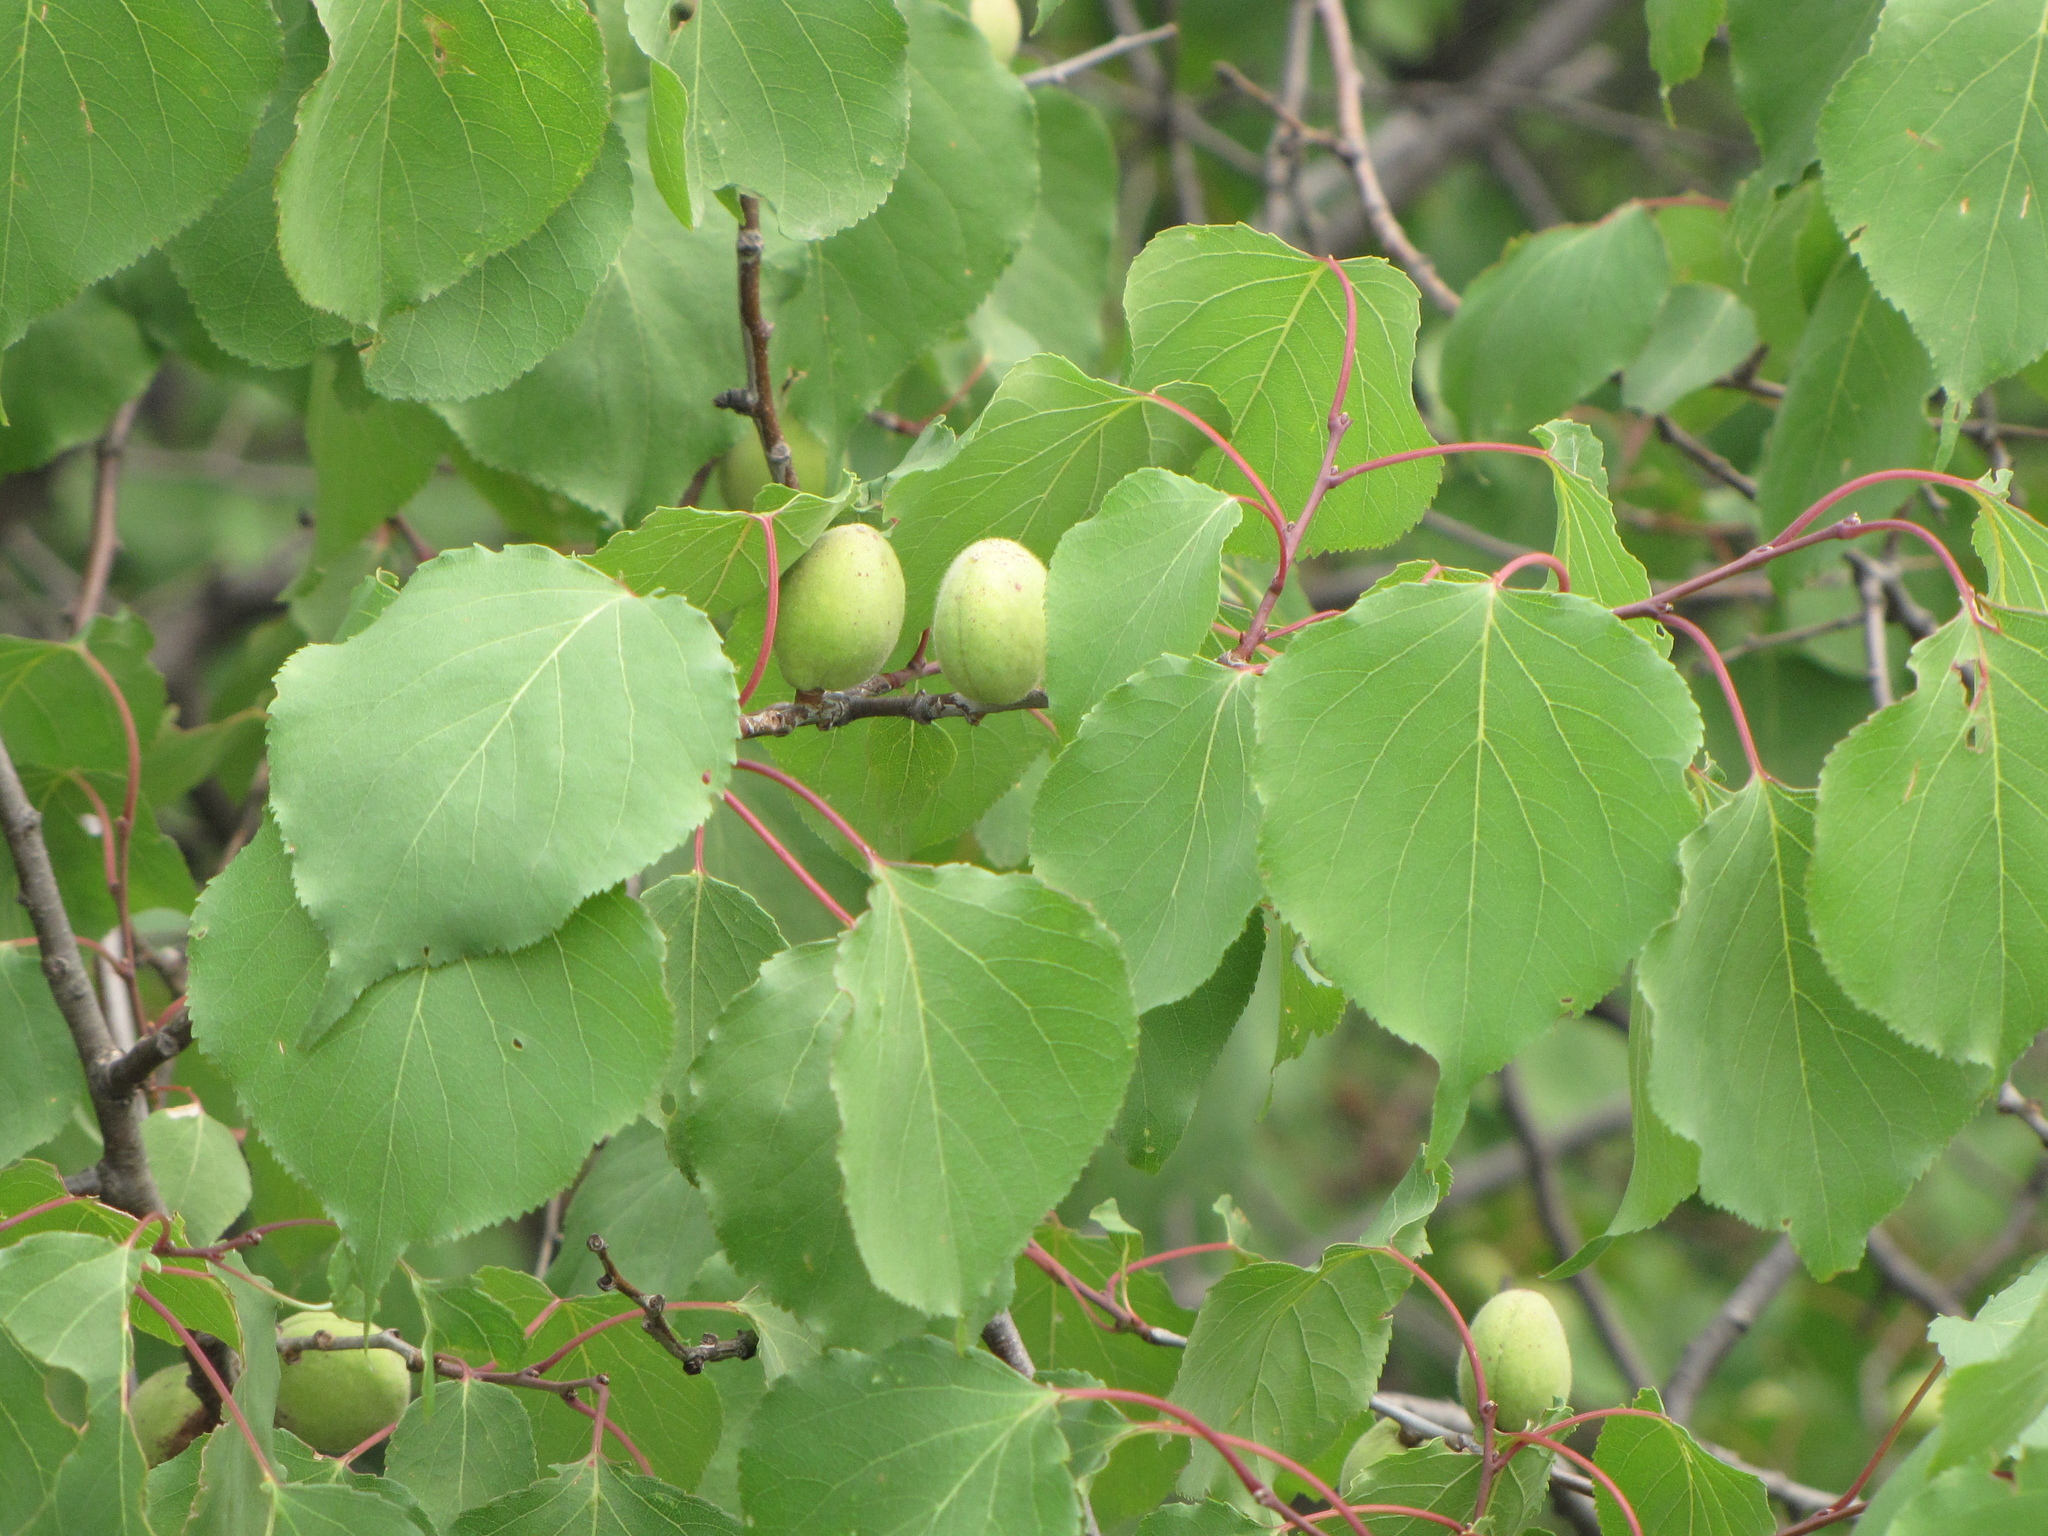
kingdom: Plantae
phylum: Tracheophyta
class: Magnoliopsida
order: Rosales
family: Rosaceae
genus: Prunus
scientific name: Prunus sibirica
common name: Siberian apricot
